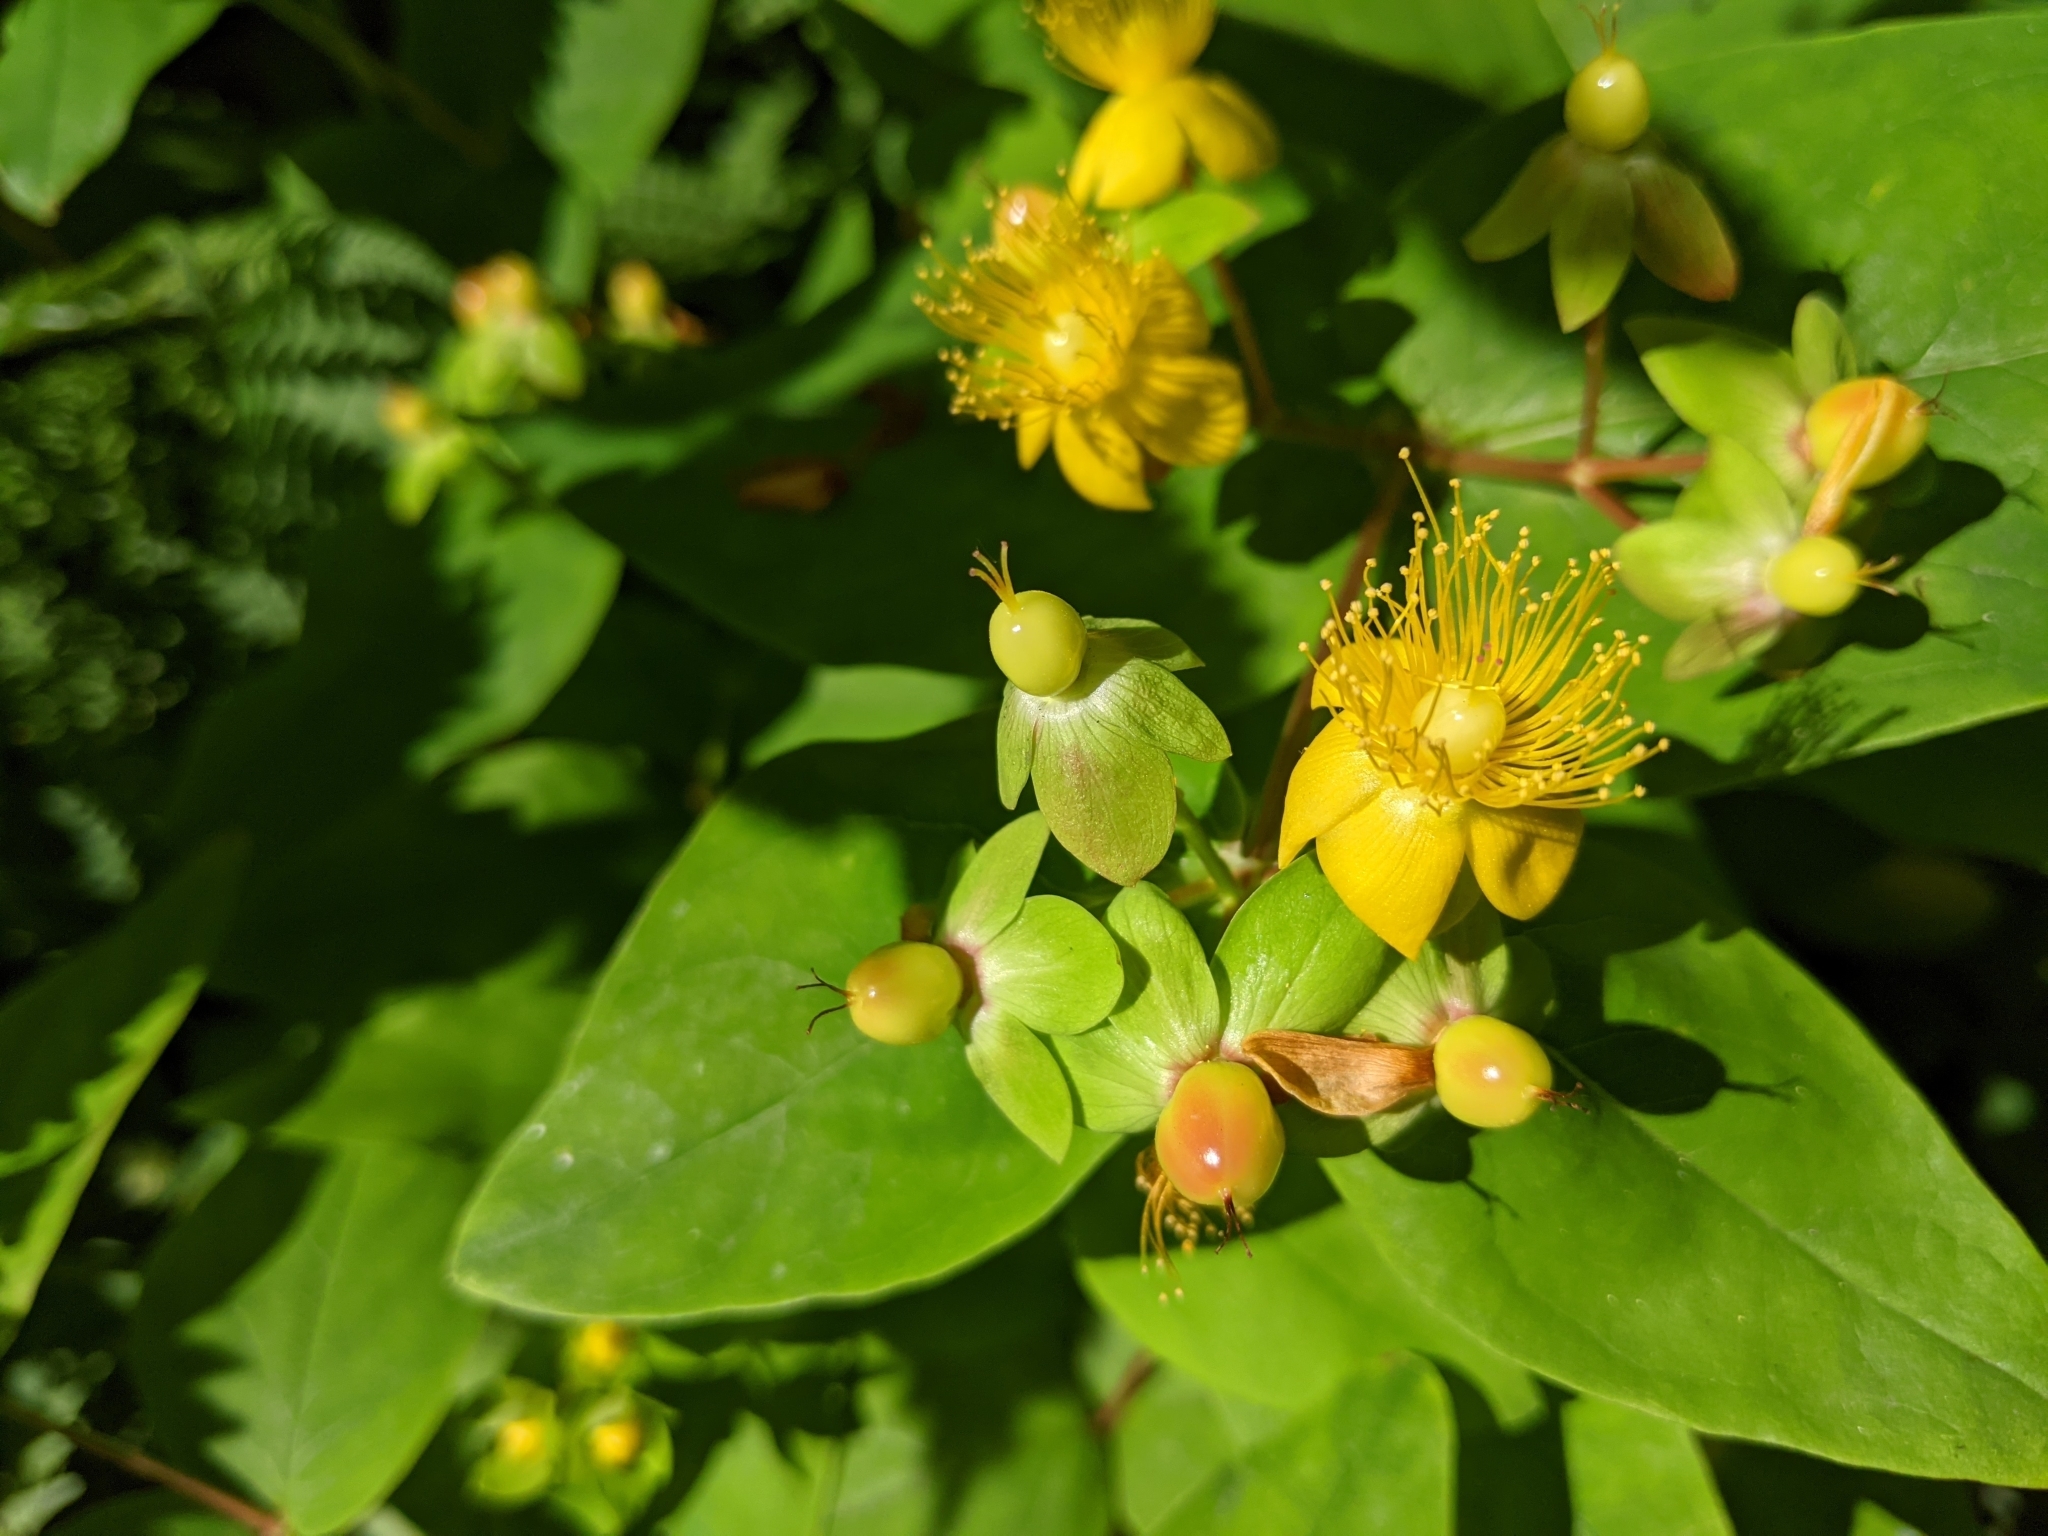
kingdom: Plantae
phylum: Tracheophyta
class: Magnoliopsida
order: Malpighiales
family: Hypericaceae
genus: Hypericum
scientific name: Hypericum androsaemum
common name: Sweet-amber
